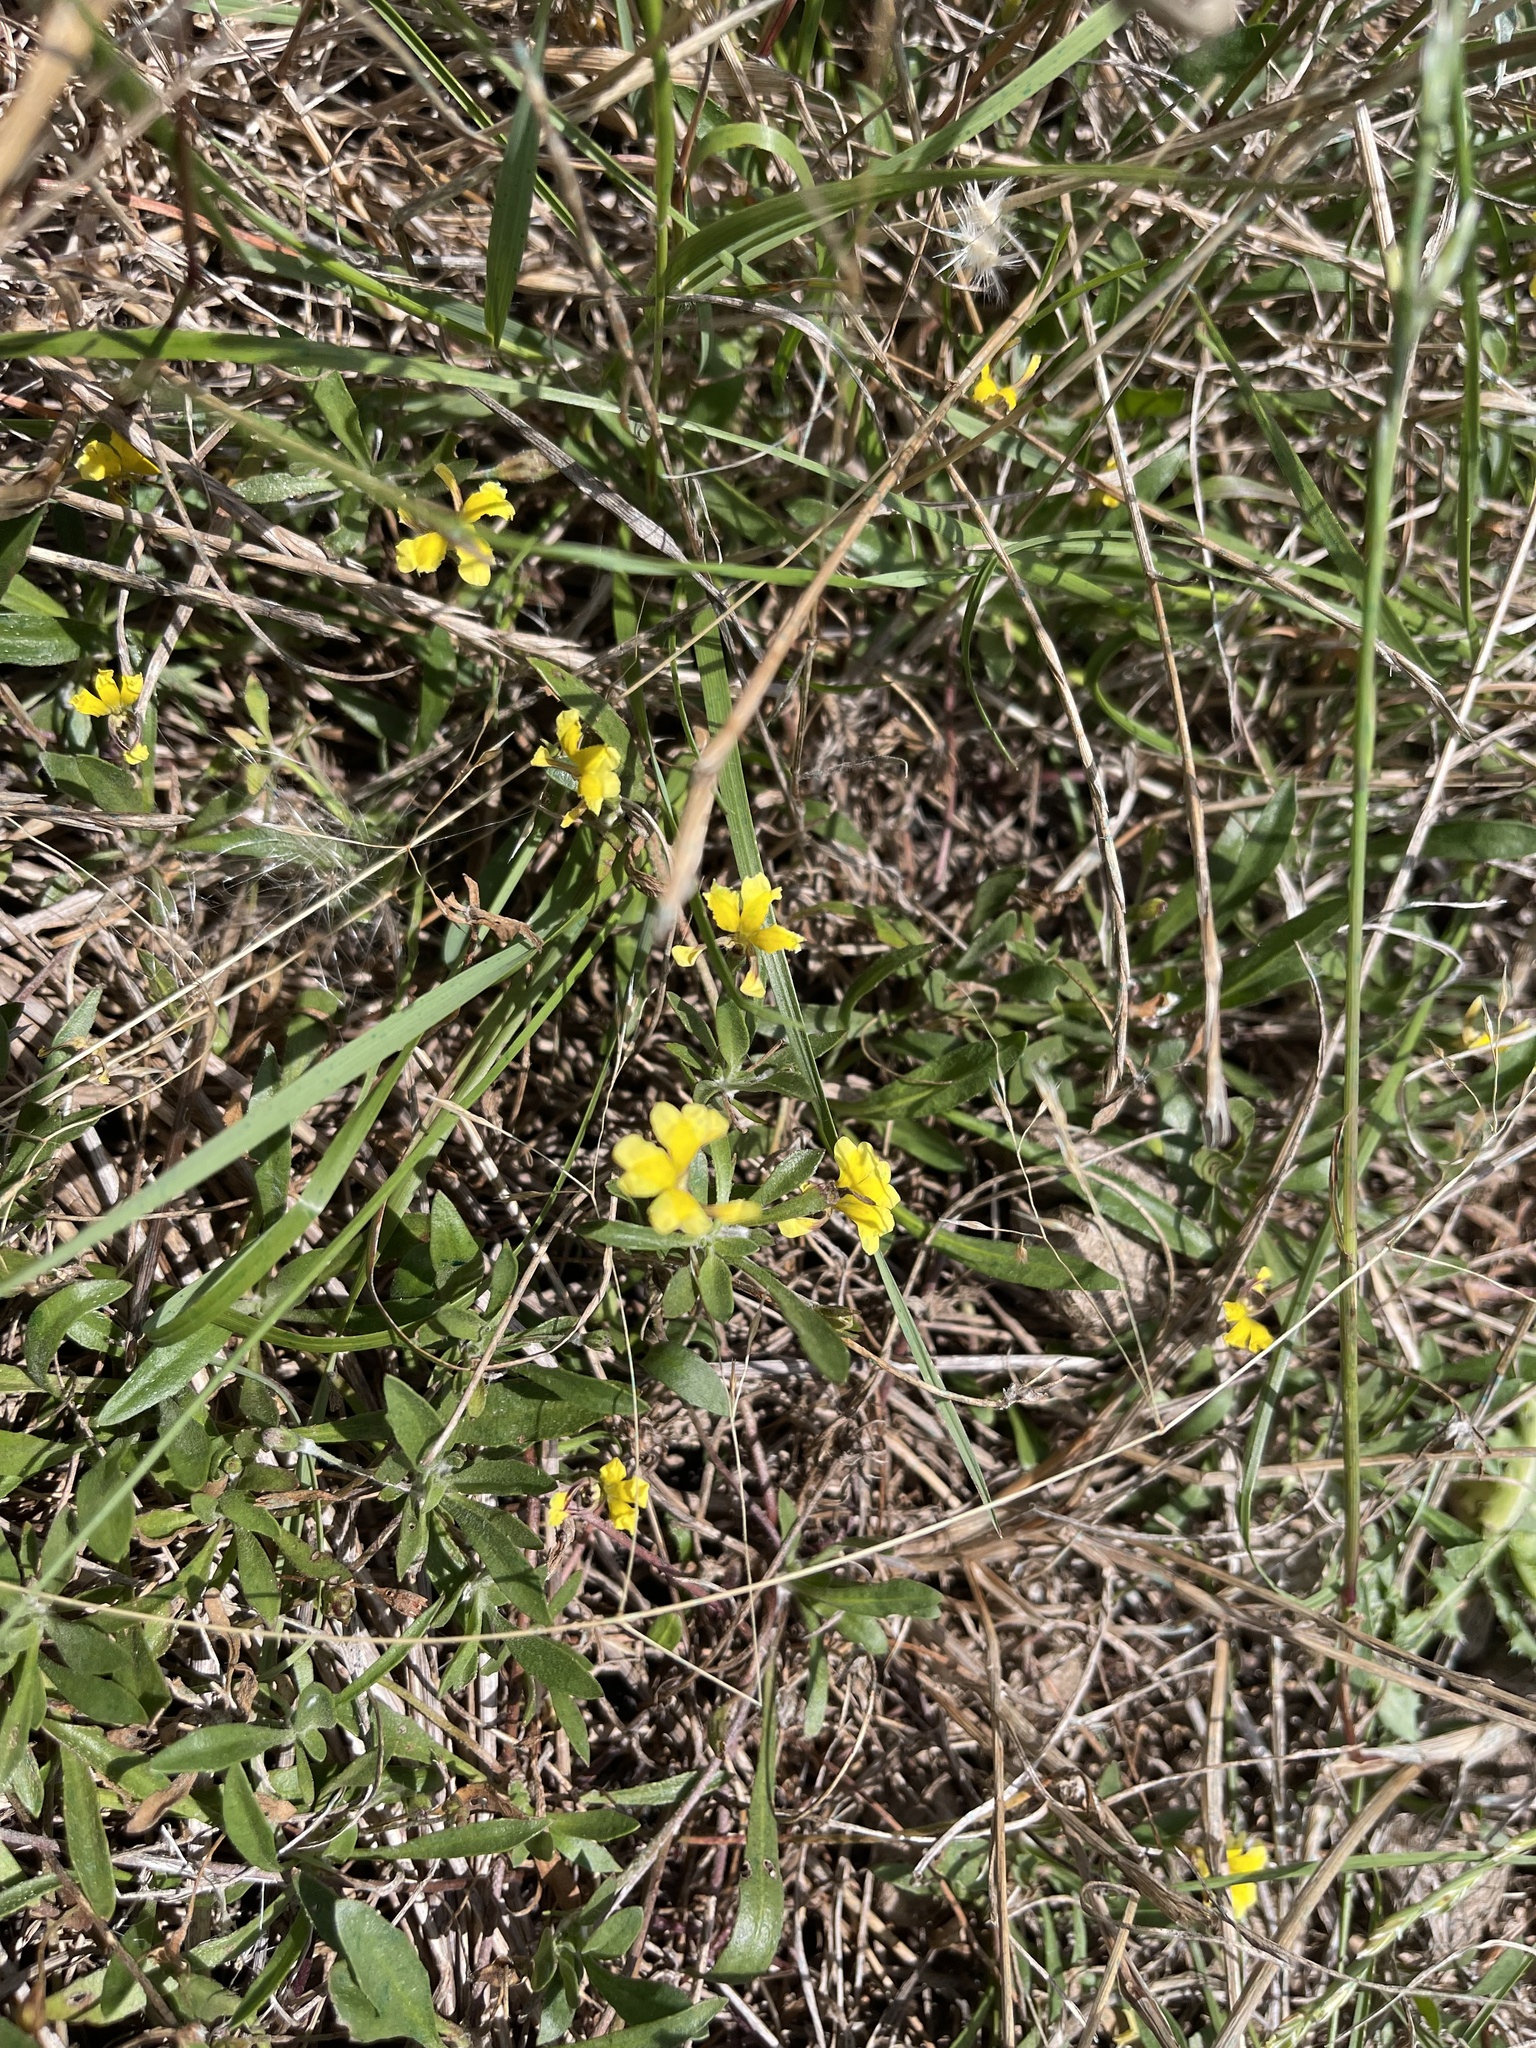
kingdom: Plantae
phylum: Tracheophyta
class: Magnoliopsida
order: Asterales
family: Goodeniaceae
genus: Goodenia
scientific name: Goodenia humilis
